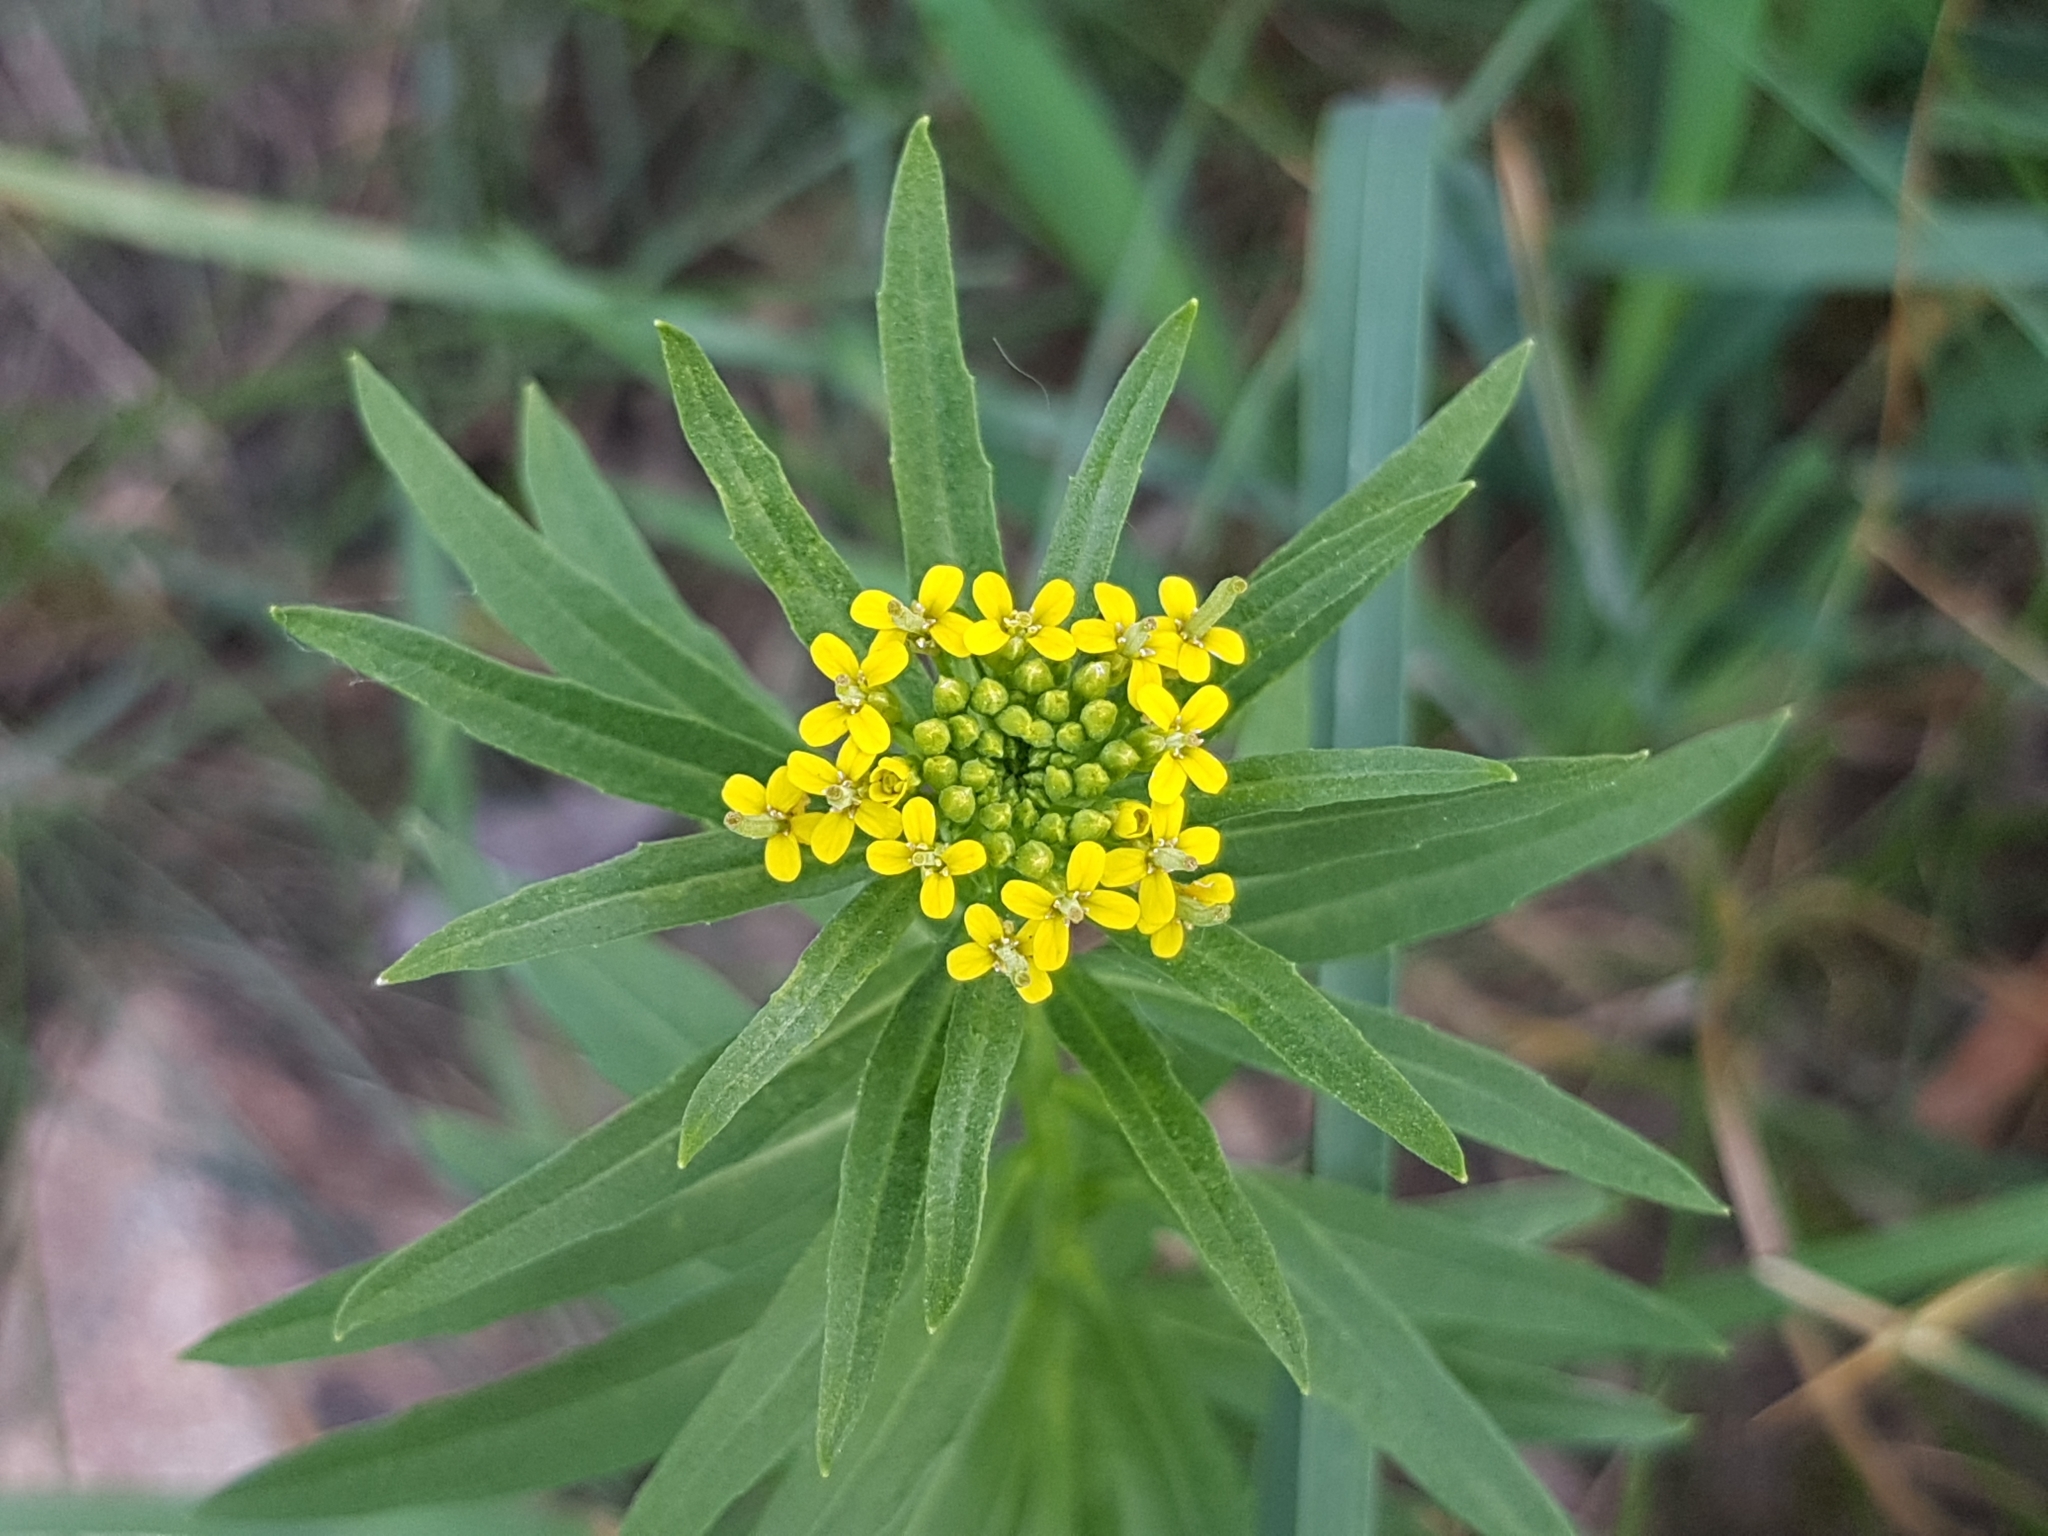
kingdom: Plantae
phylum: Tracheophyta
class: Magnoliopsida
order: Brassicales
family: Brassicaceae
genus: Erysimum
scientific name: Erysimum cheiranthoides
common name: Treacle mustard
